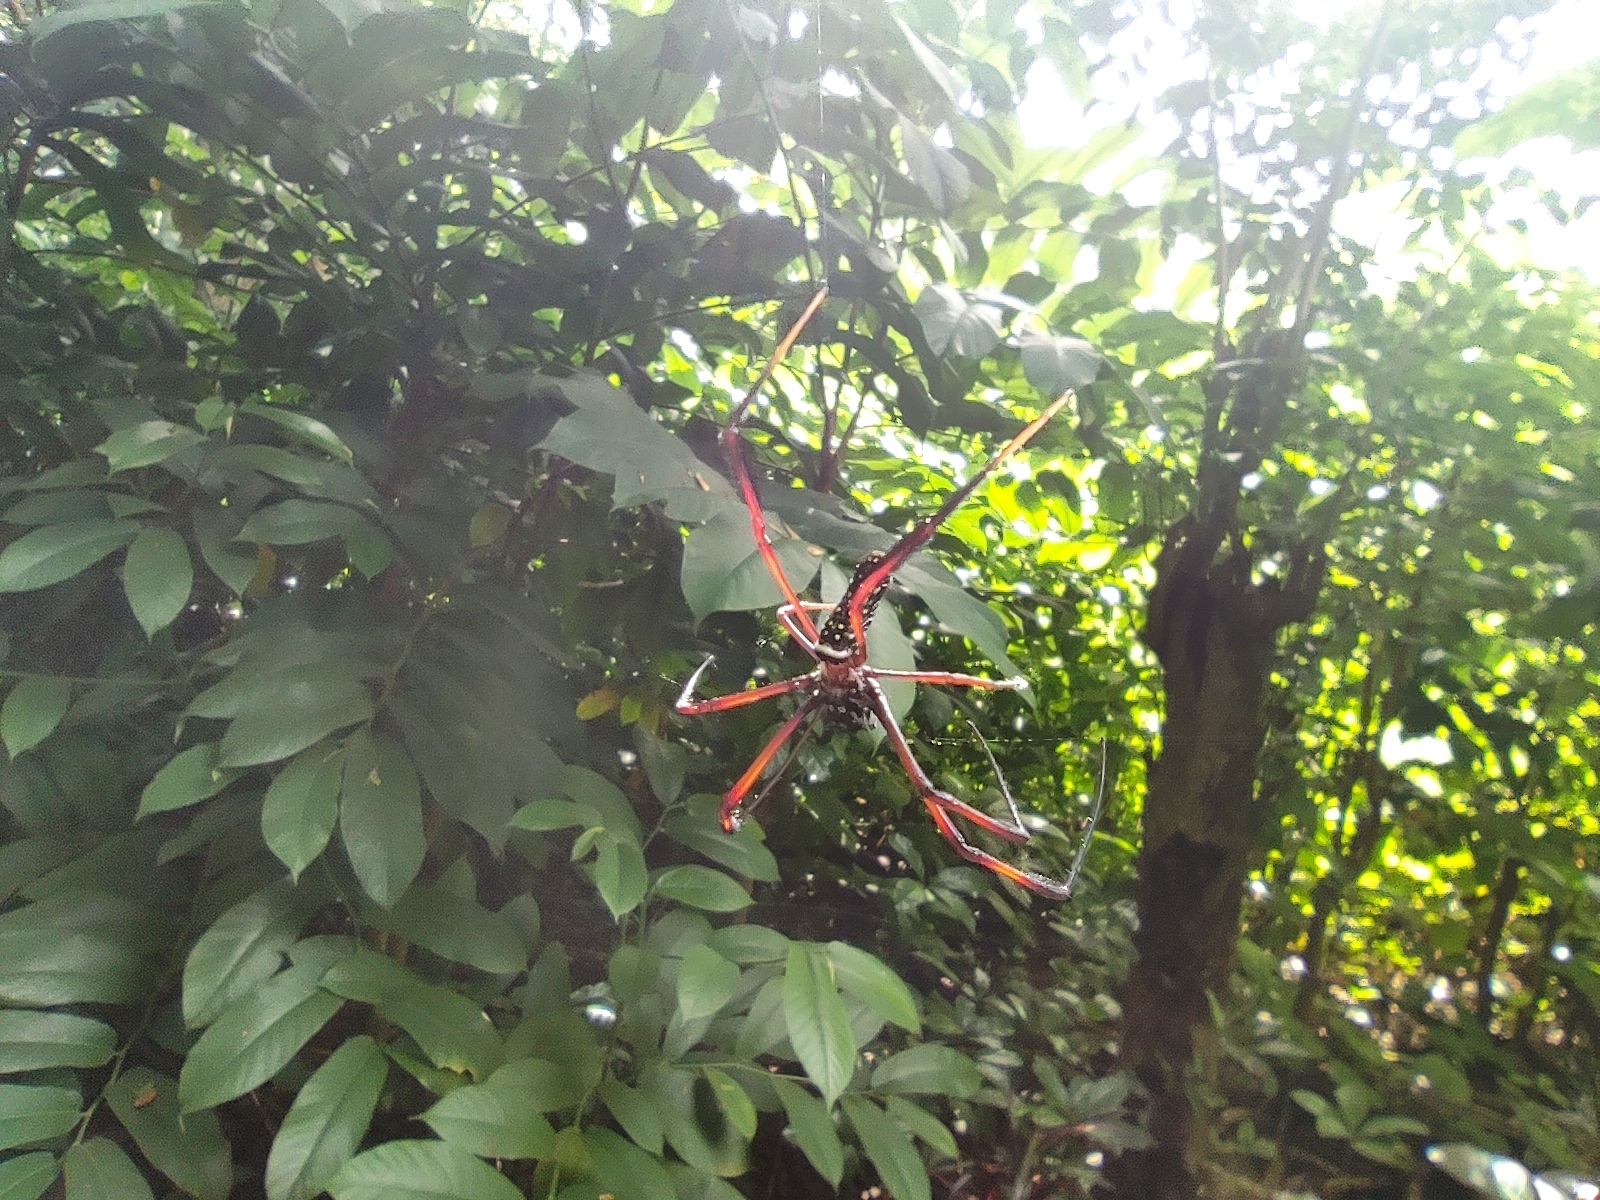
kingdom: Animalia
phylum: Arthropoda
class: Arachnida
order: Araneae
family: Araneidae
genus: Nephila
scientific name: Nephila comorana
